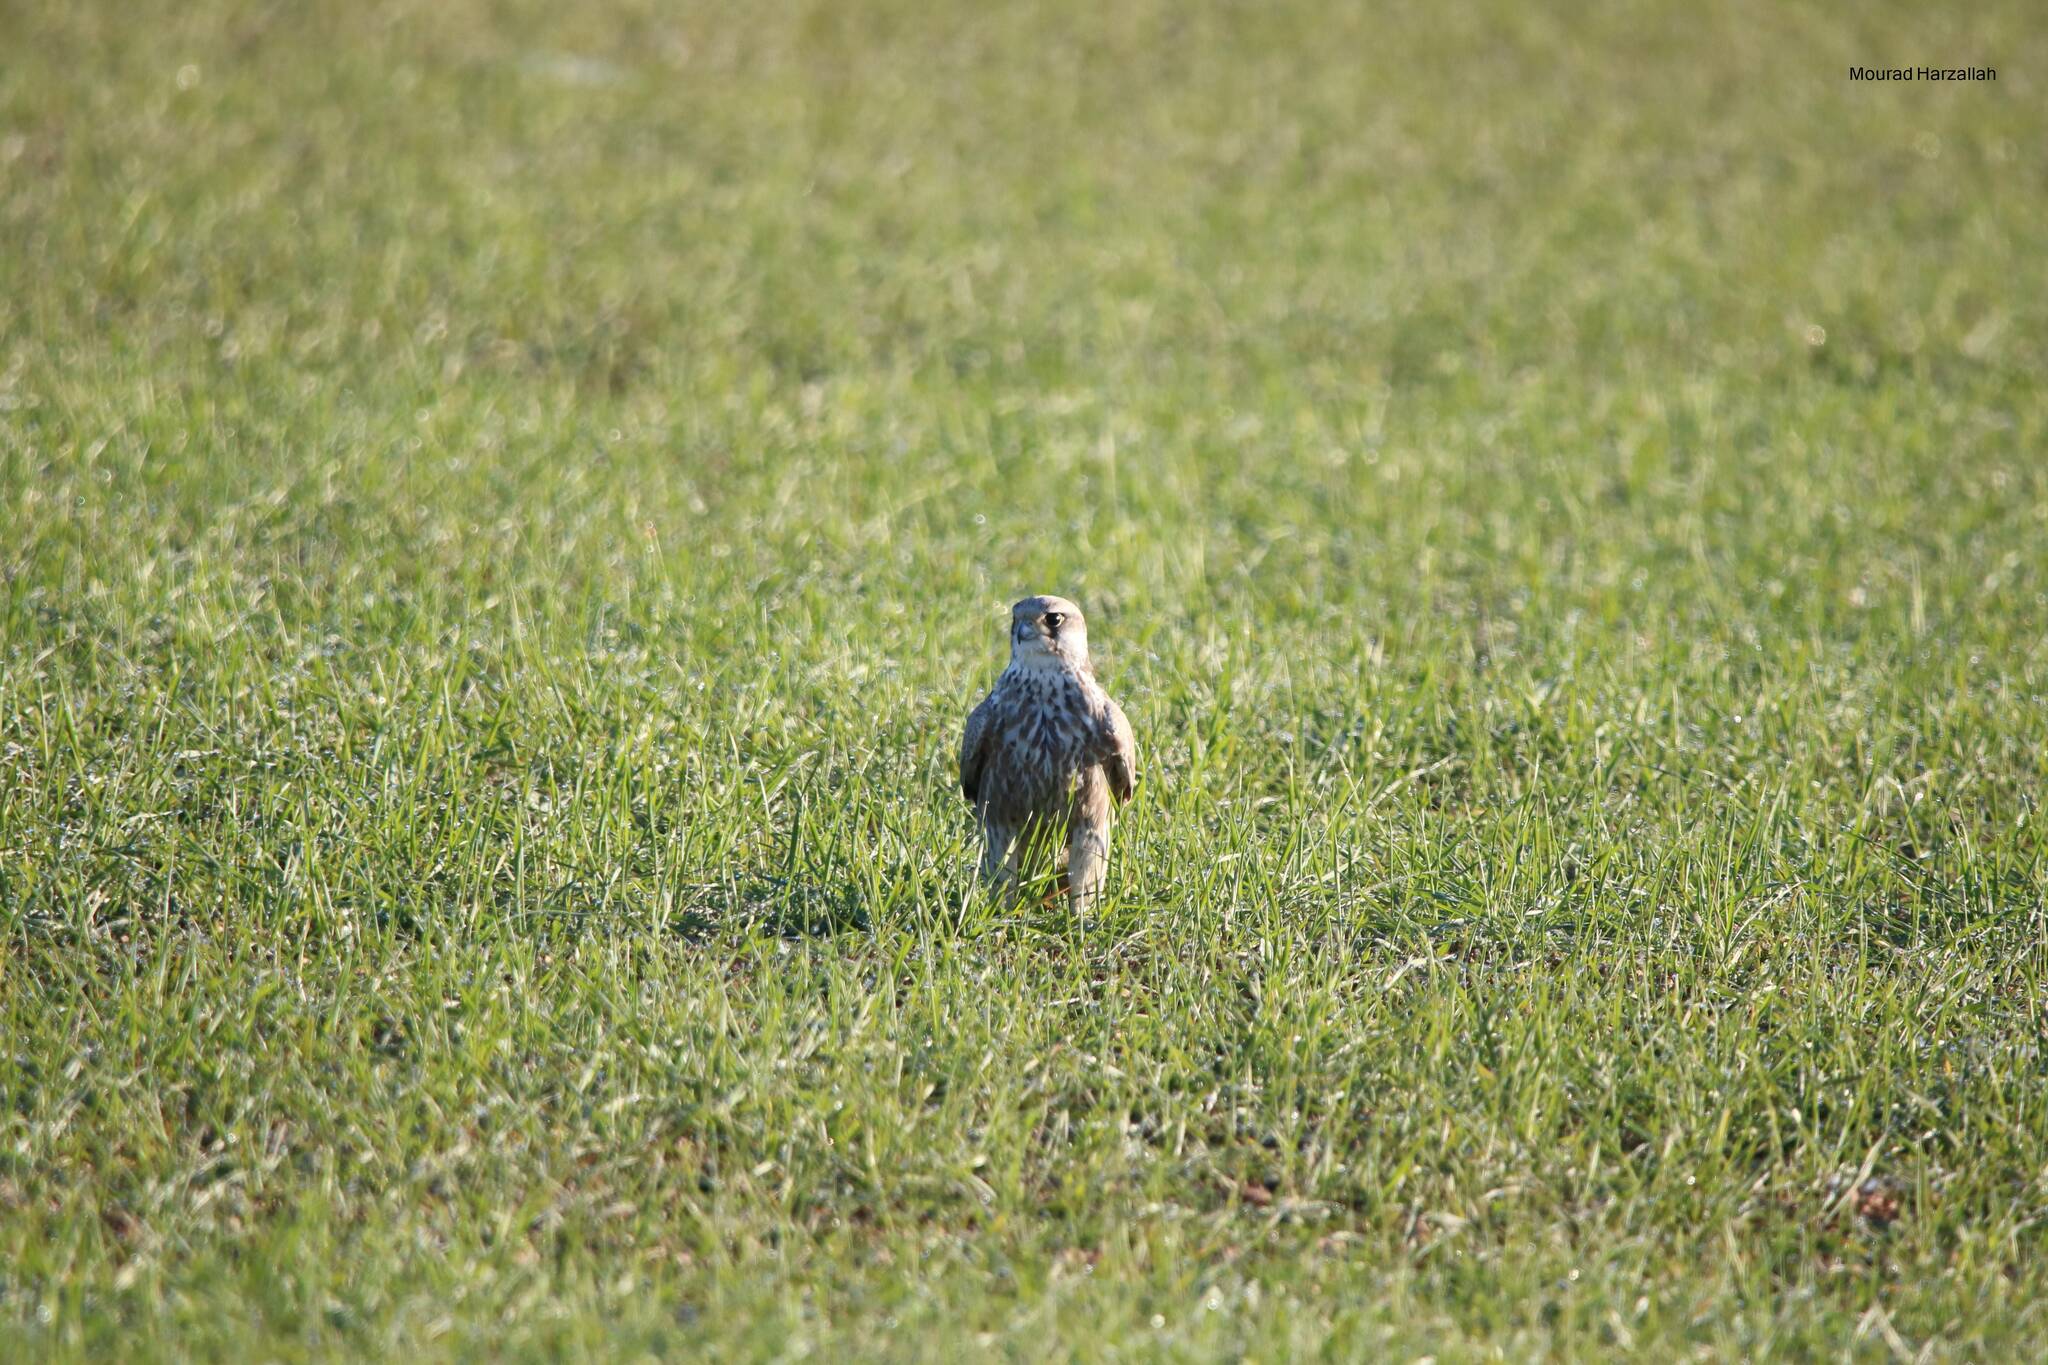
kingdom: Animalia
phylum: Chordata
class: Aves
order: Falconiformes
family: Falconidae
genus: Falco
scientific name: Falco biarmicus
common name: Lanner falcon
